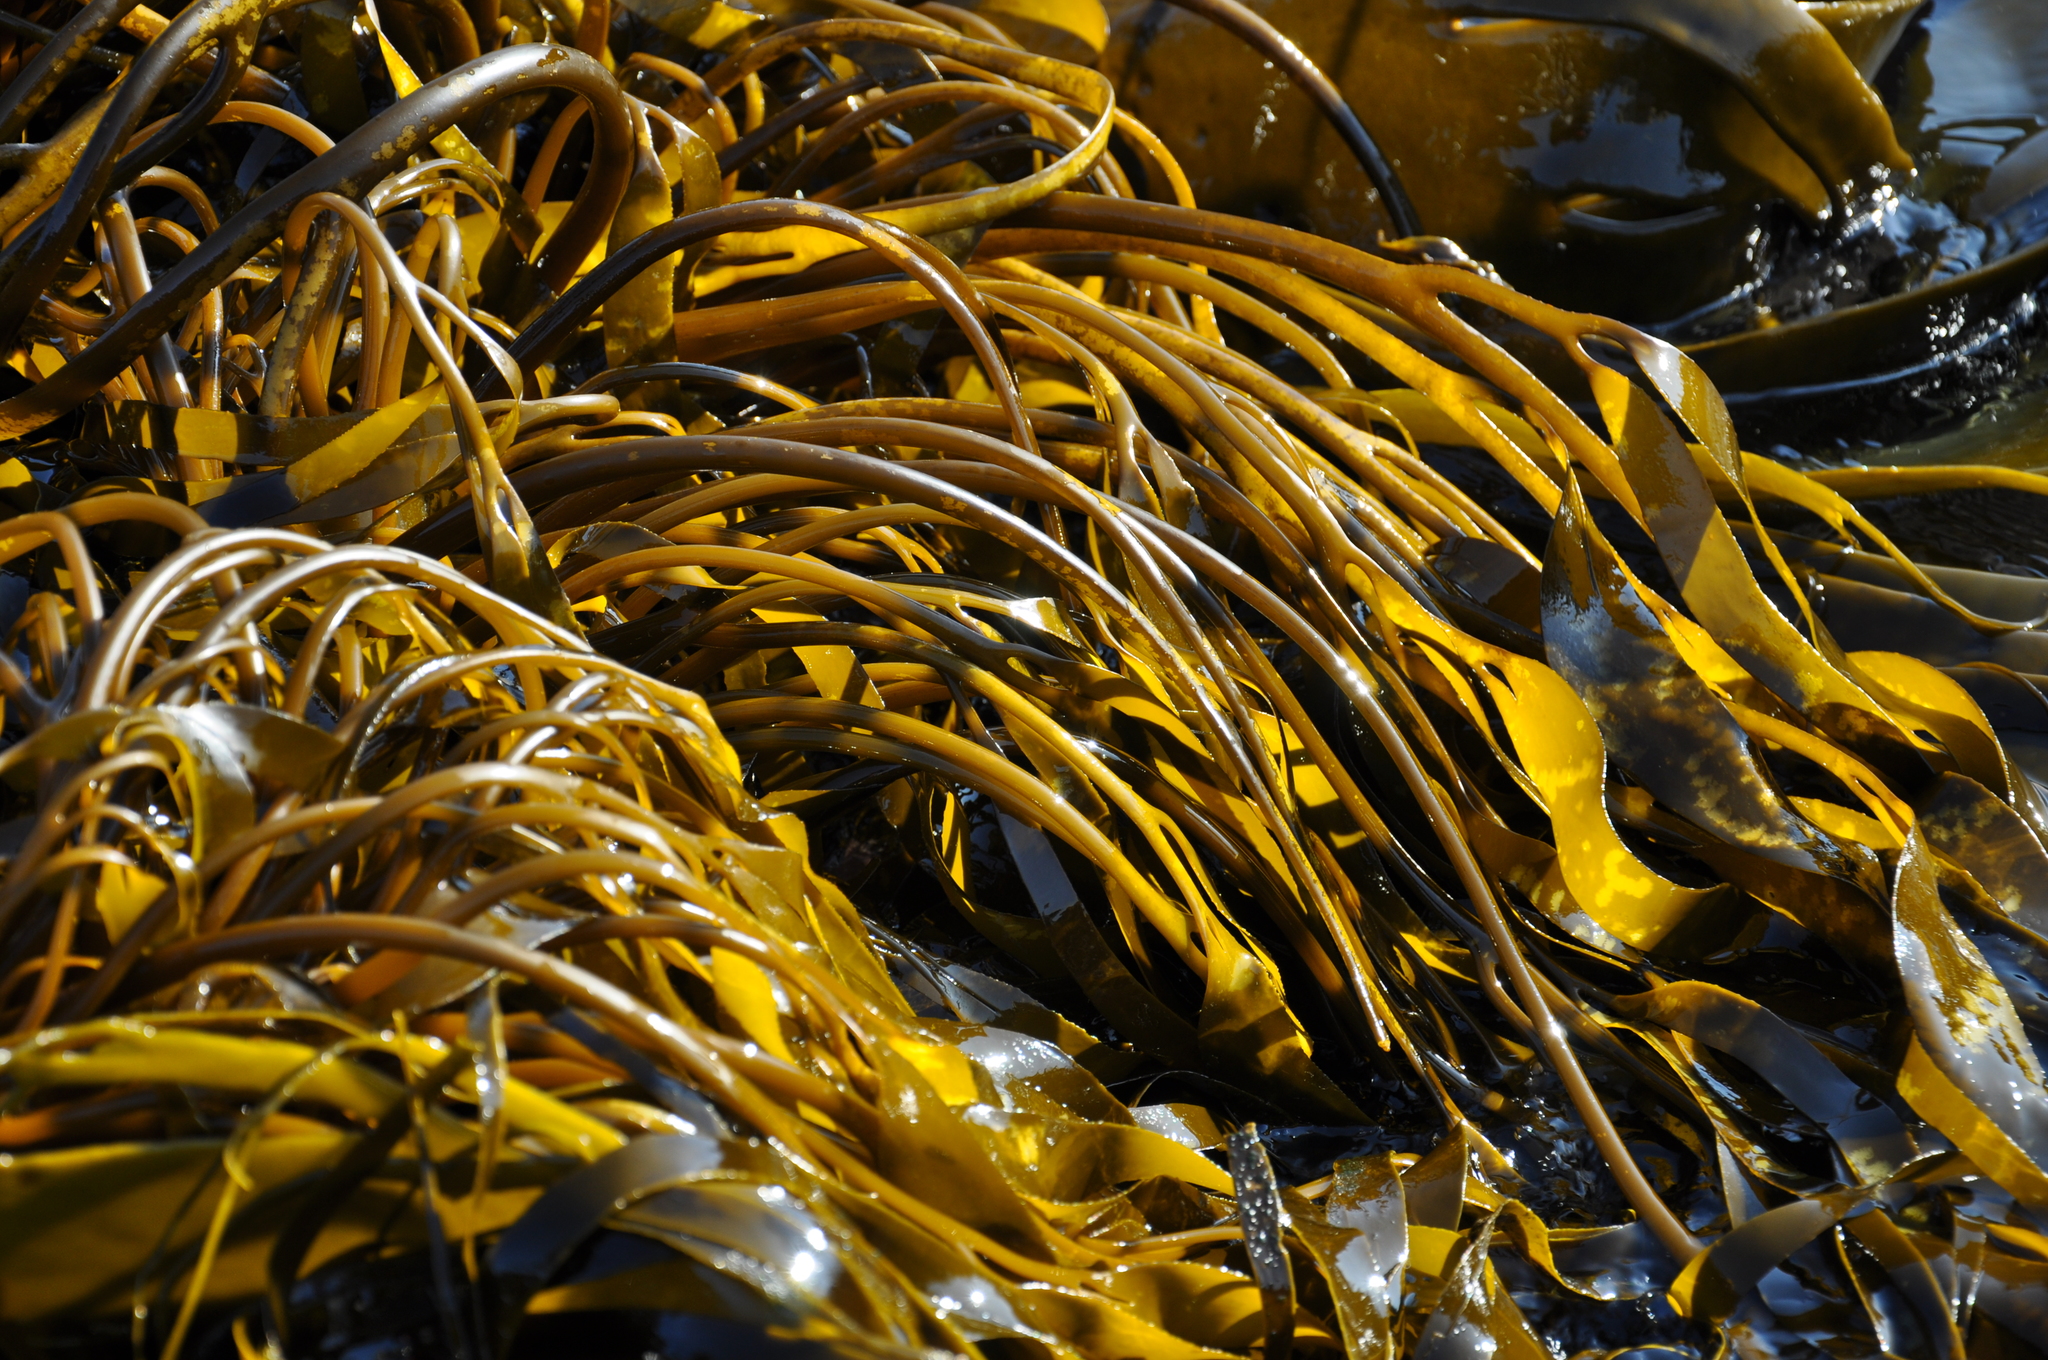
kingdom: Chromista
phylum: Ochrophyta
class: Phaeophyceae
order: Laminariales
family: Lessoniaceae
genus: Lessonia
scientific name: Lessonia spicata
